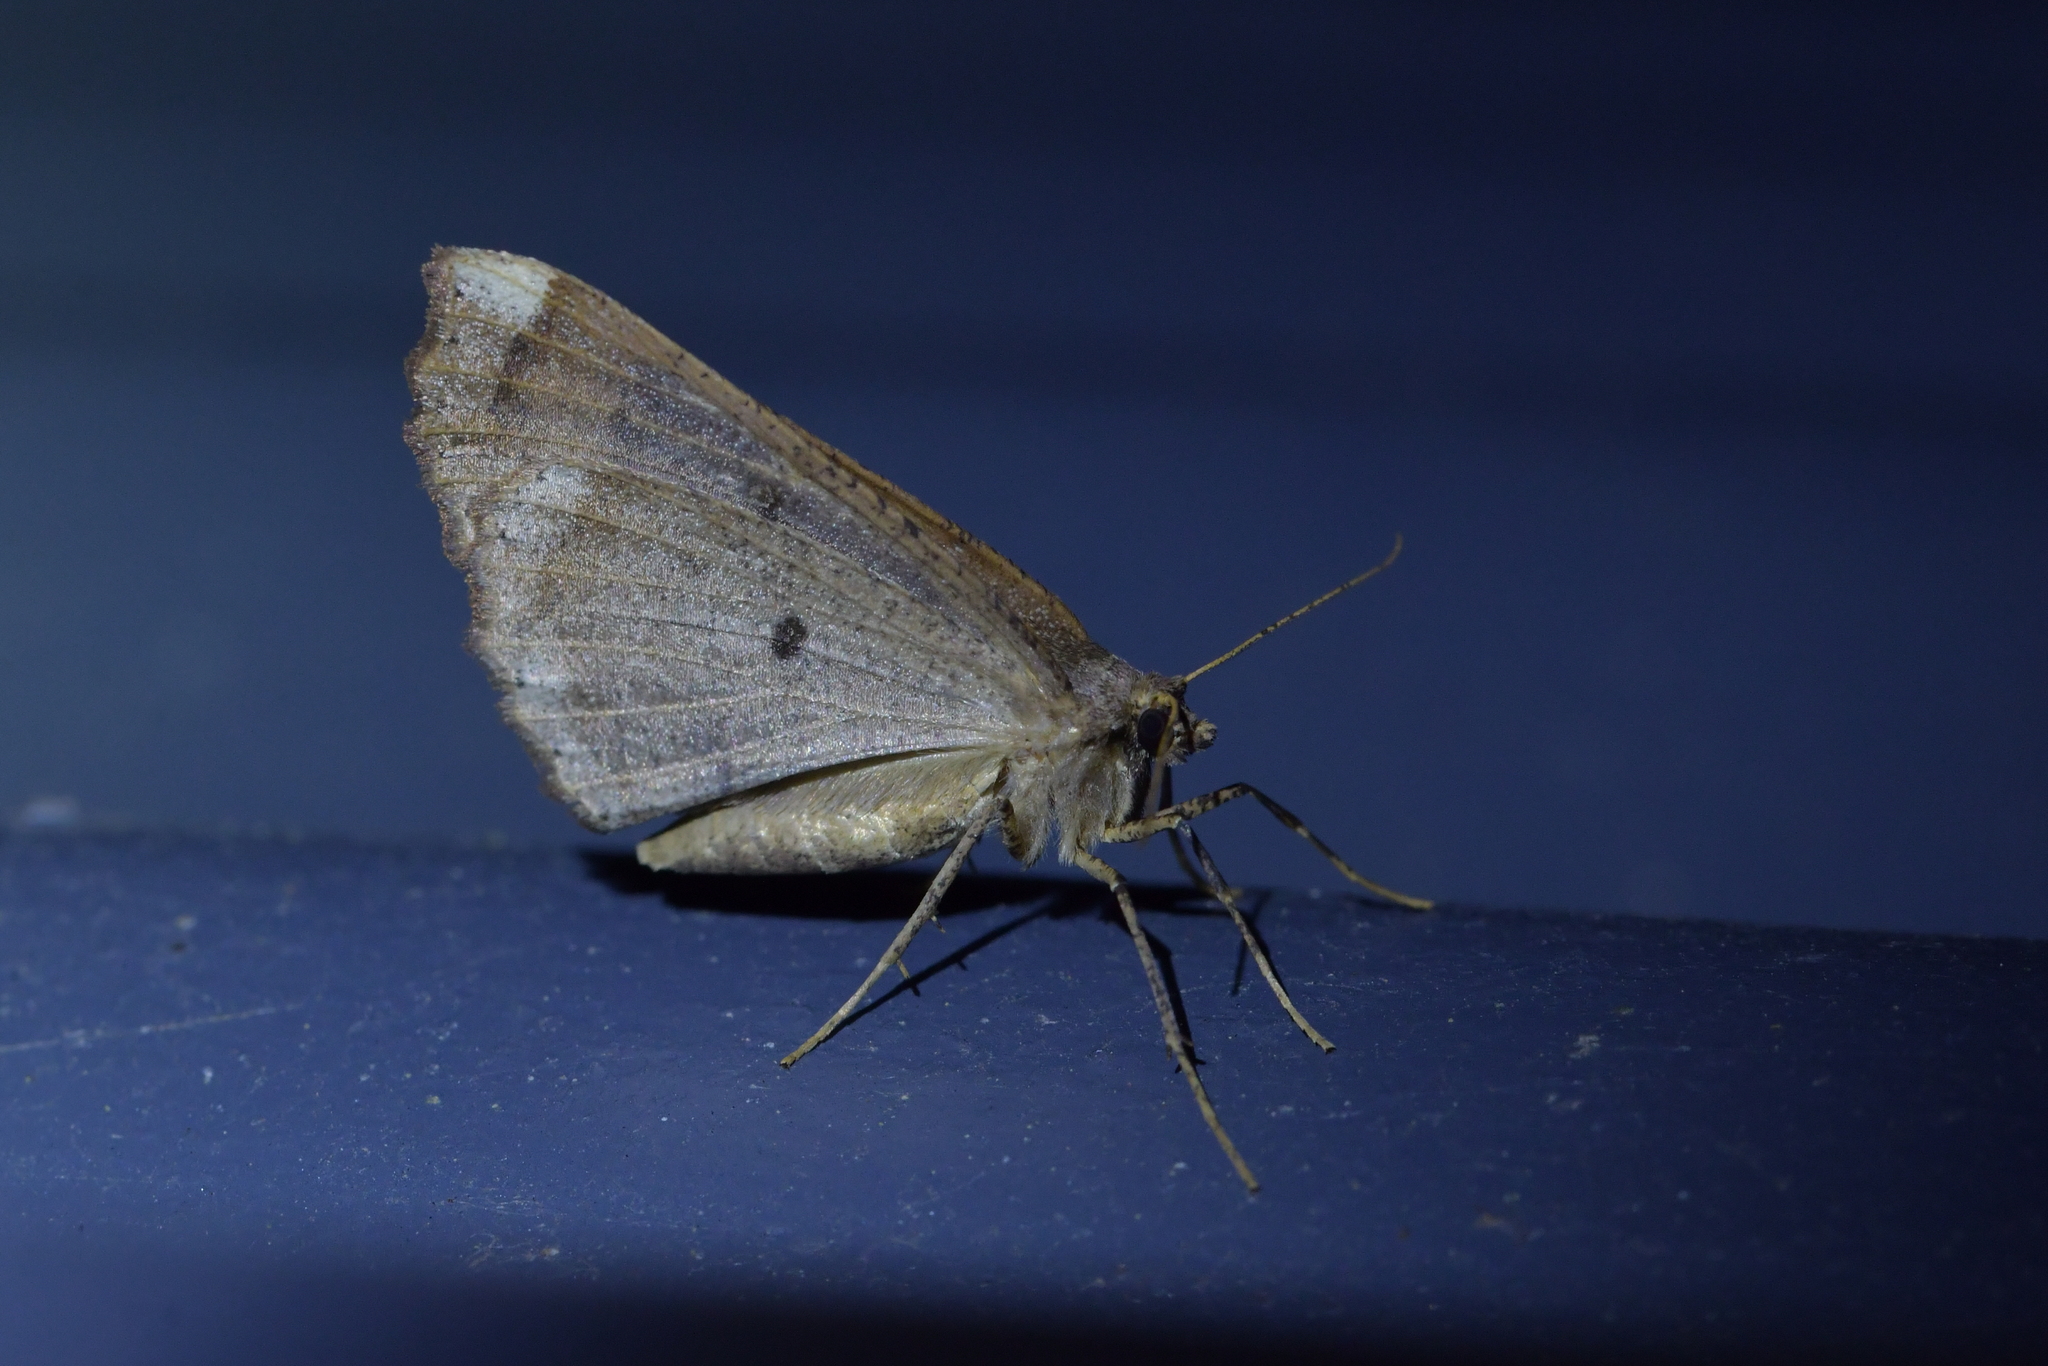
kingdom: Animalia
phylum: Arthropoda
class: Insecta
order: Lepidoptera
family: Geometridae
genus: Cleora
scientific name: Cleora scriptaria
